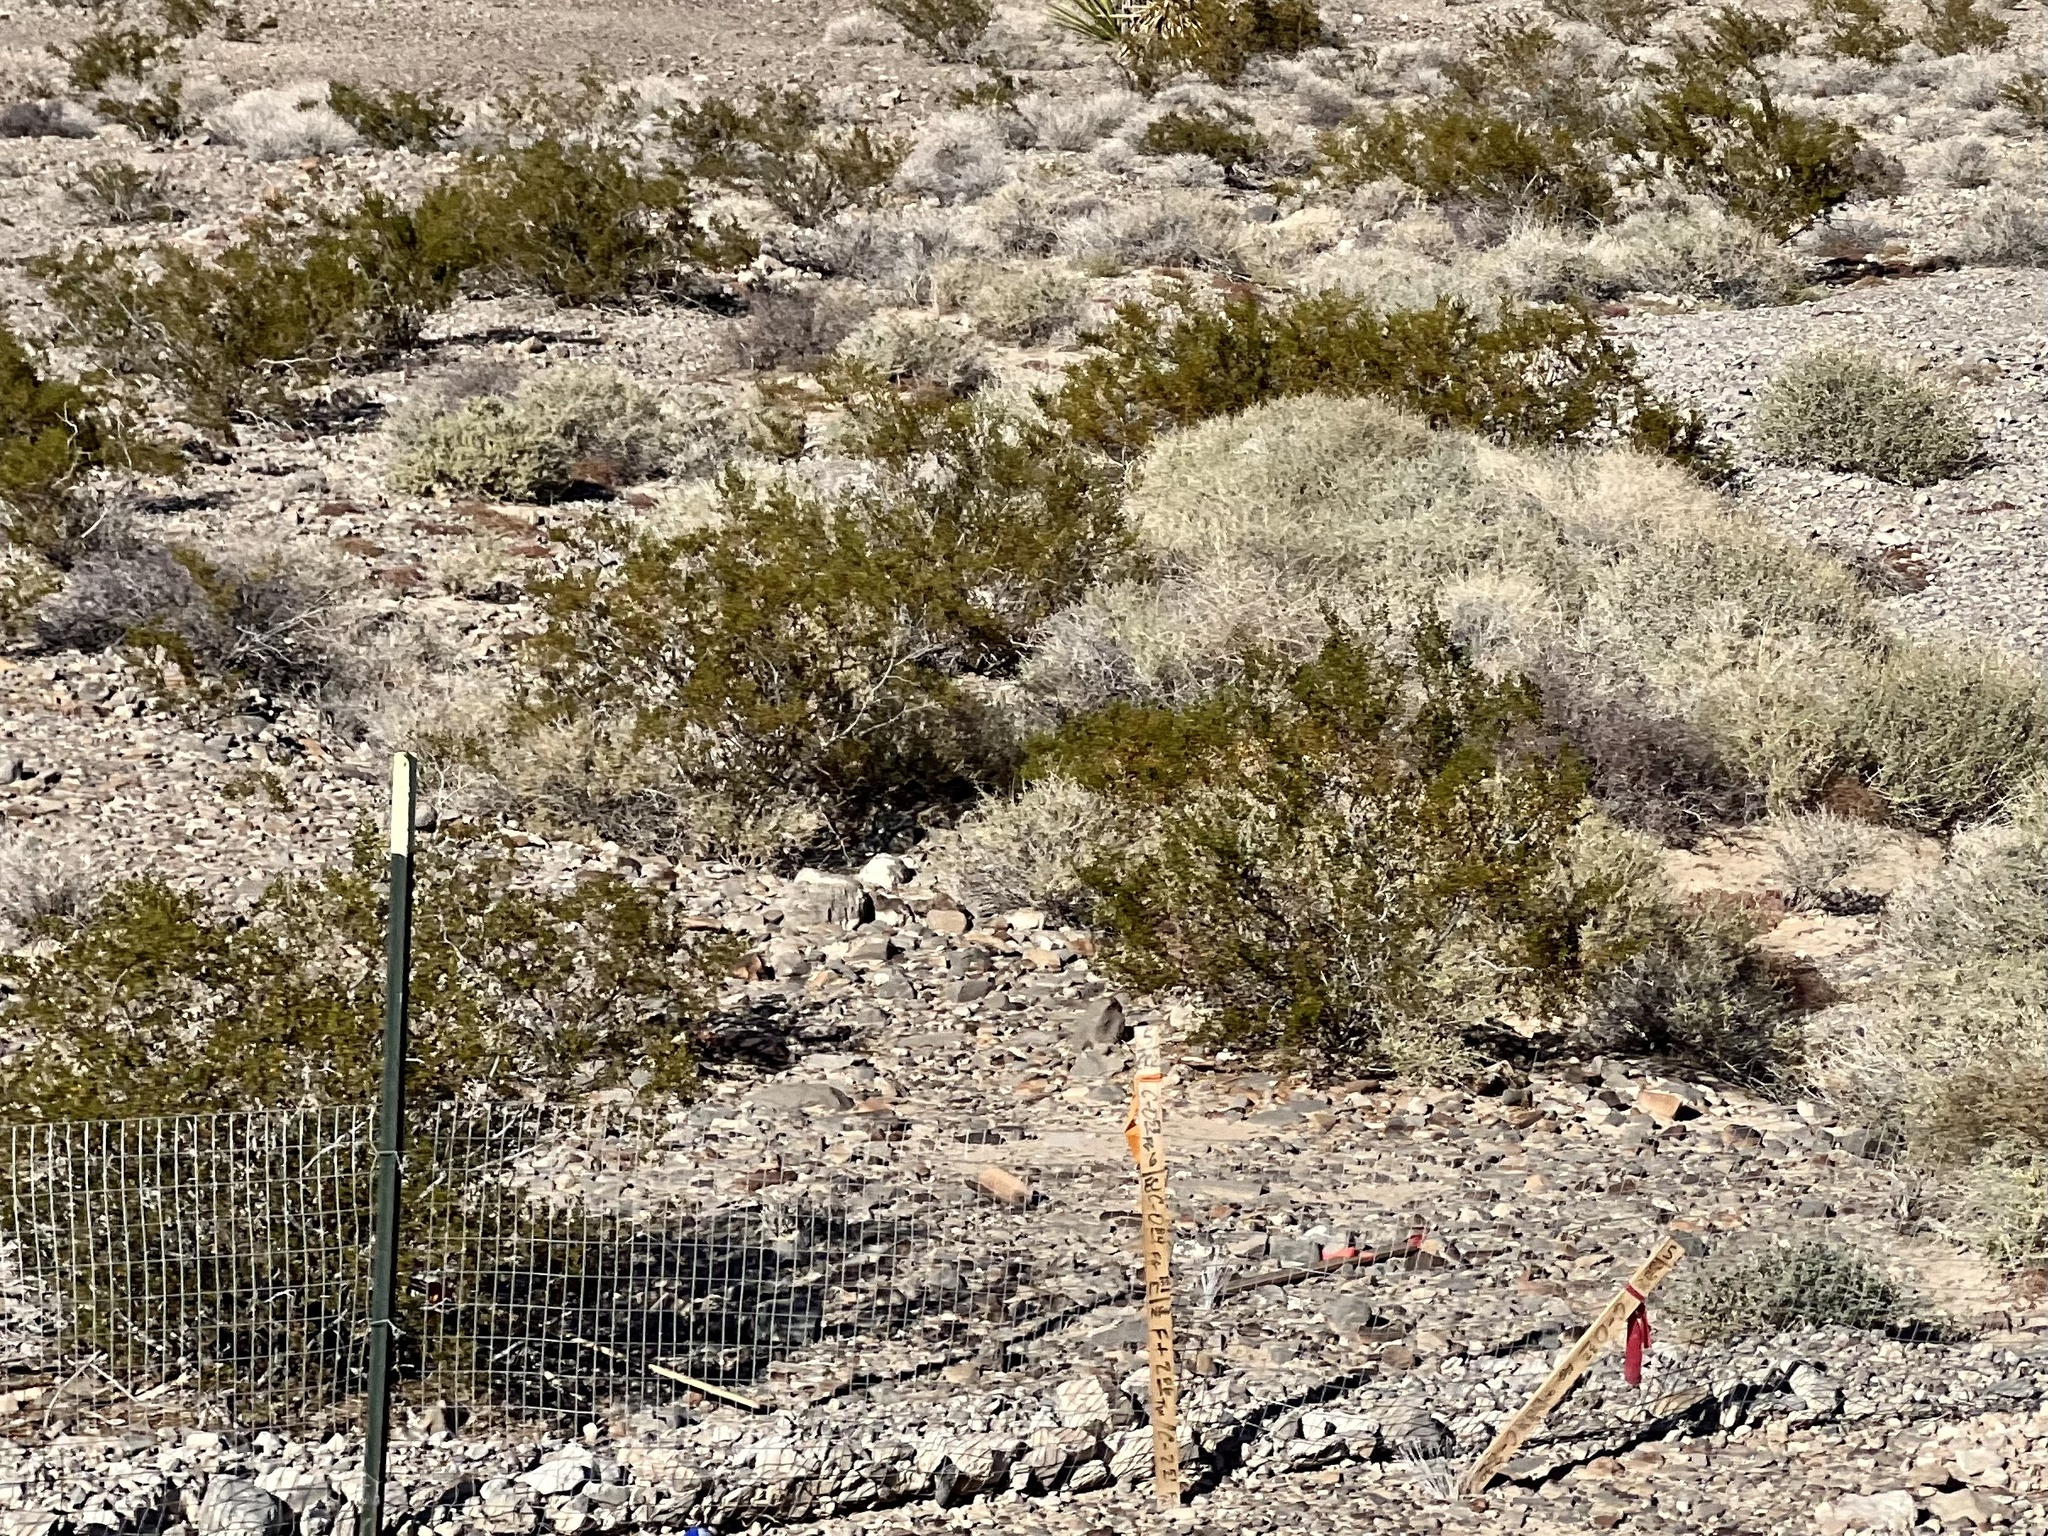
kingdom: Plantae
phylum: Tracheophyta
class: Magnoliopsida
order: Zygophyllales
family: Zygophyllaceae
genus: Larrea
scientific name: Larrea tridentata
